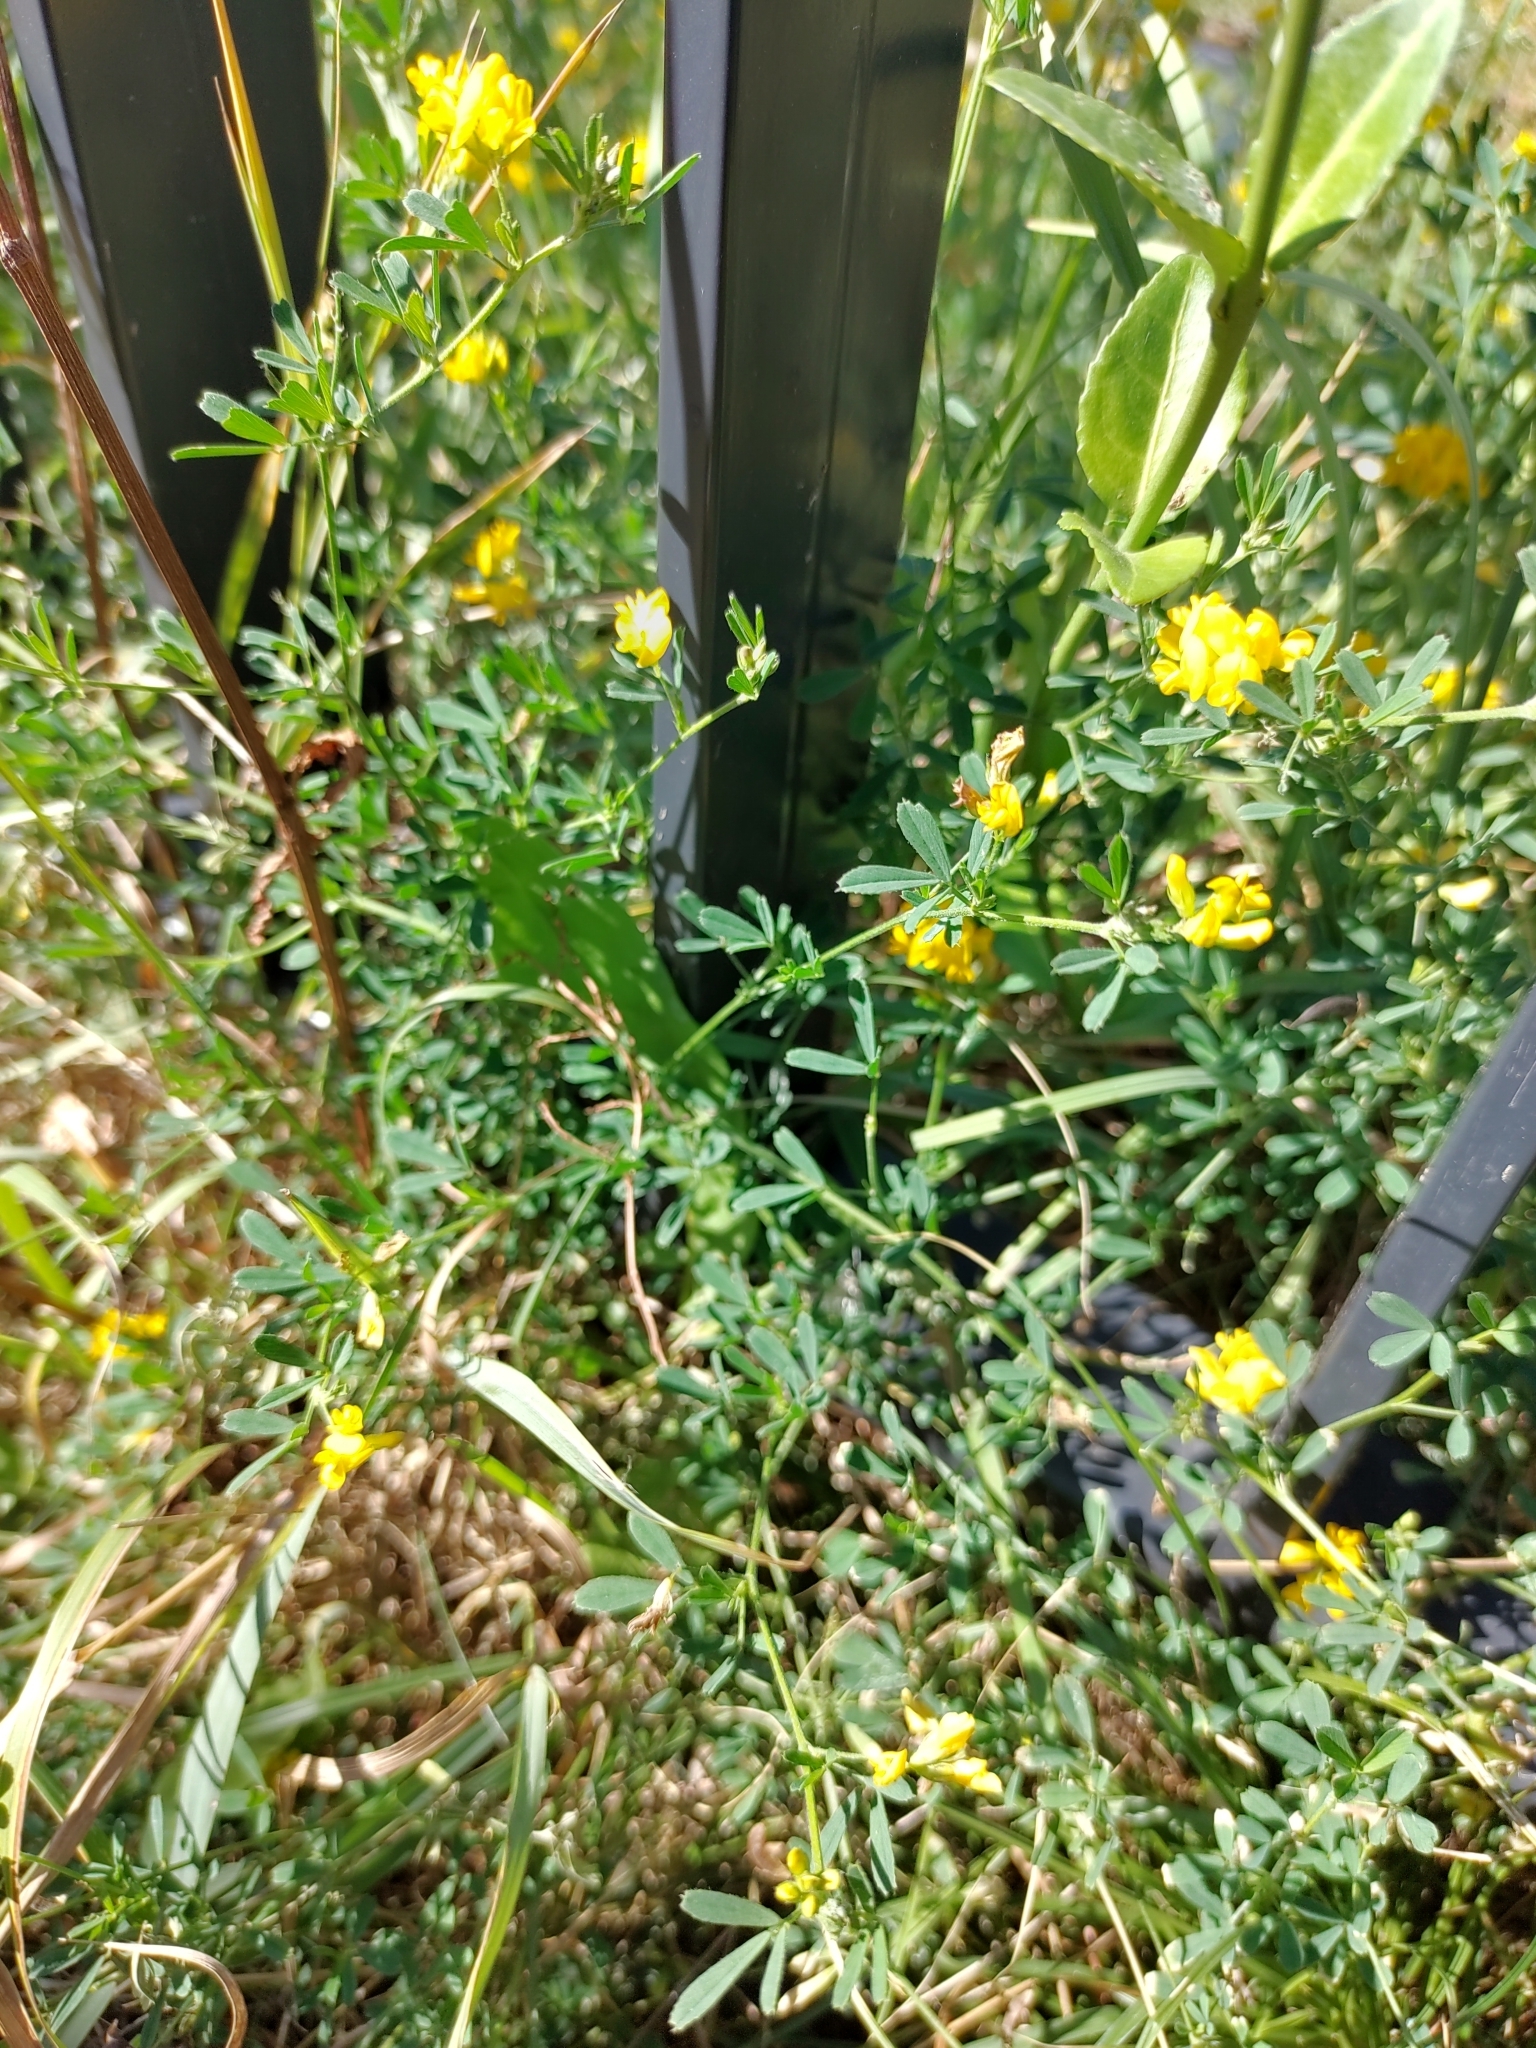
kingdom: Plantae
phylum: Tracheophyta
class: Magnoliopsida
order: Fabales
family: Fabaceae
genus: Medicago
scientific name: Medicago falcata
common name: Sickle medick
